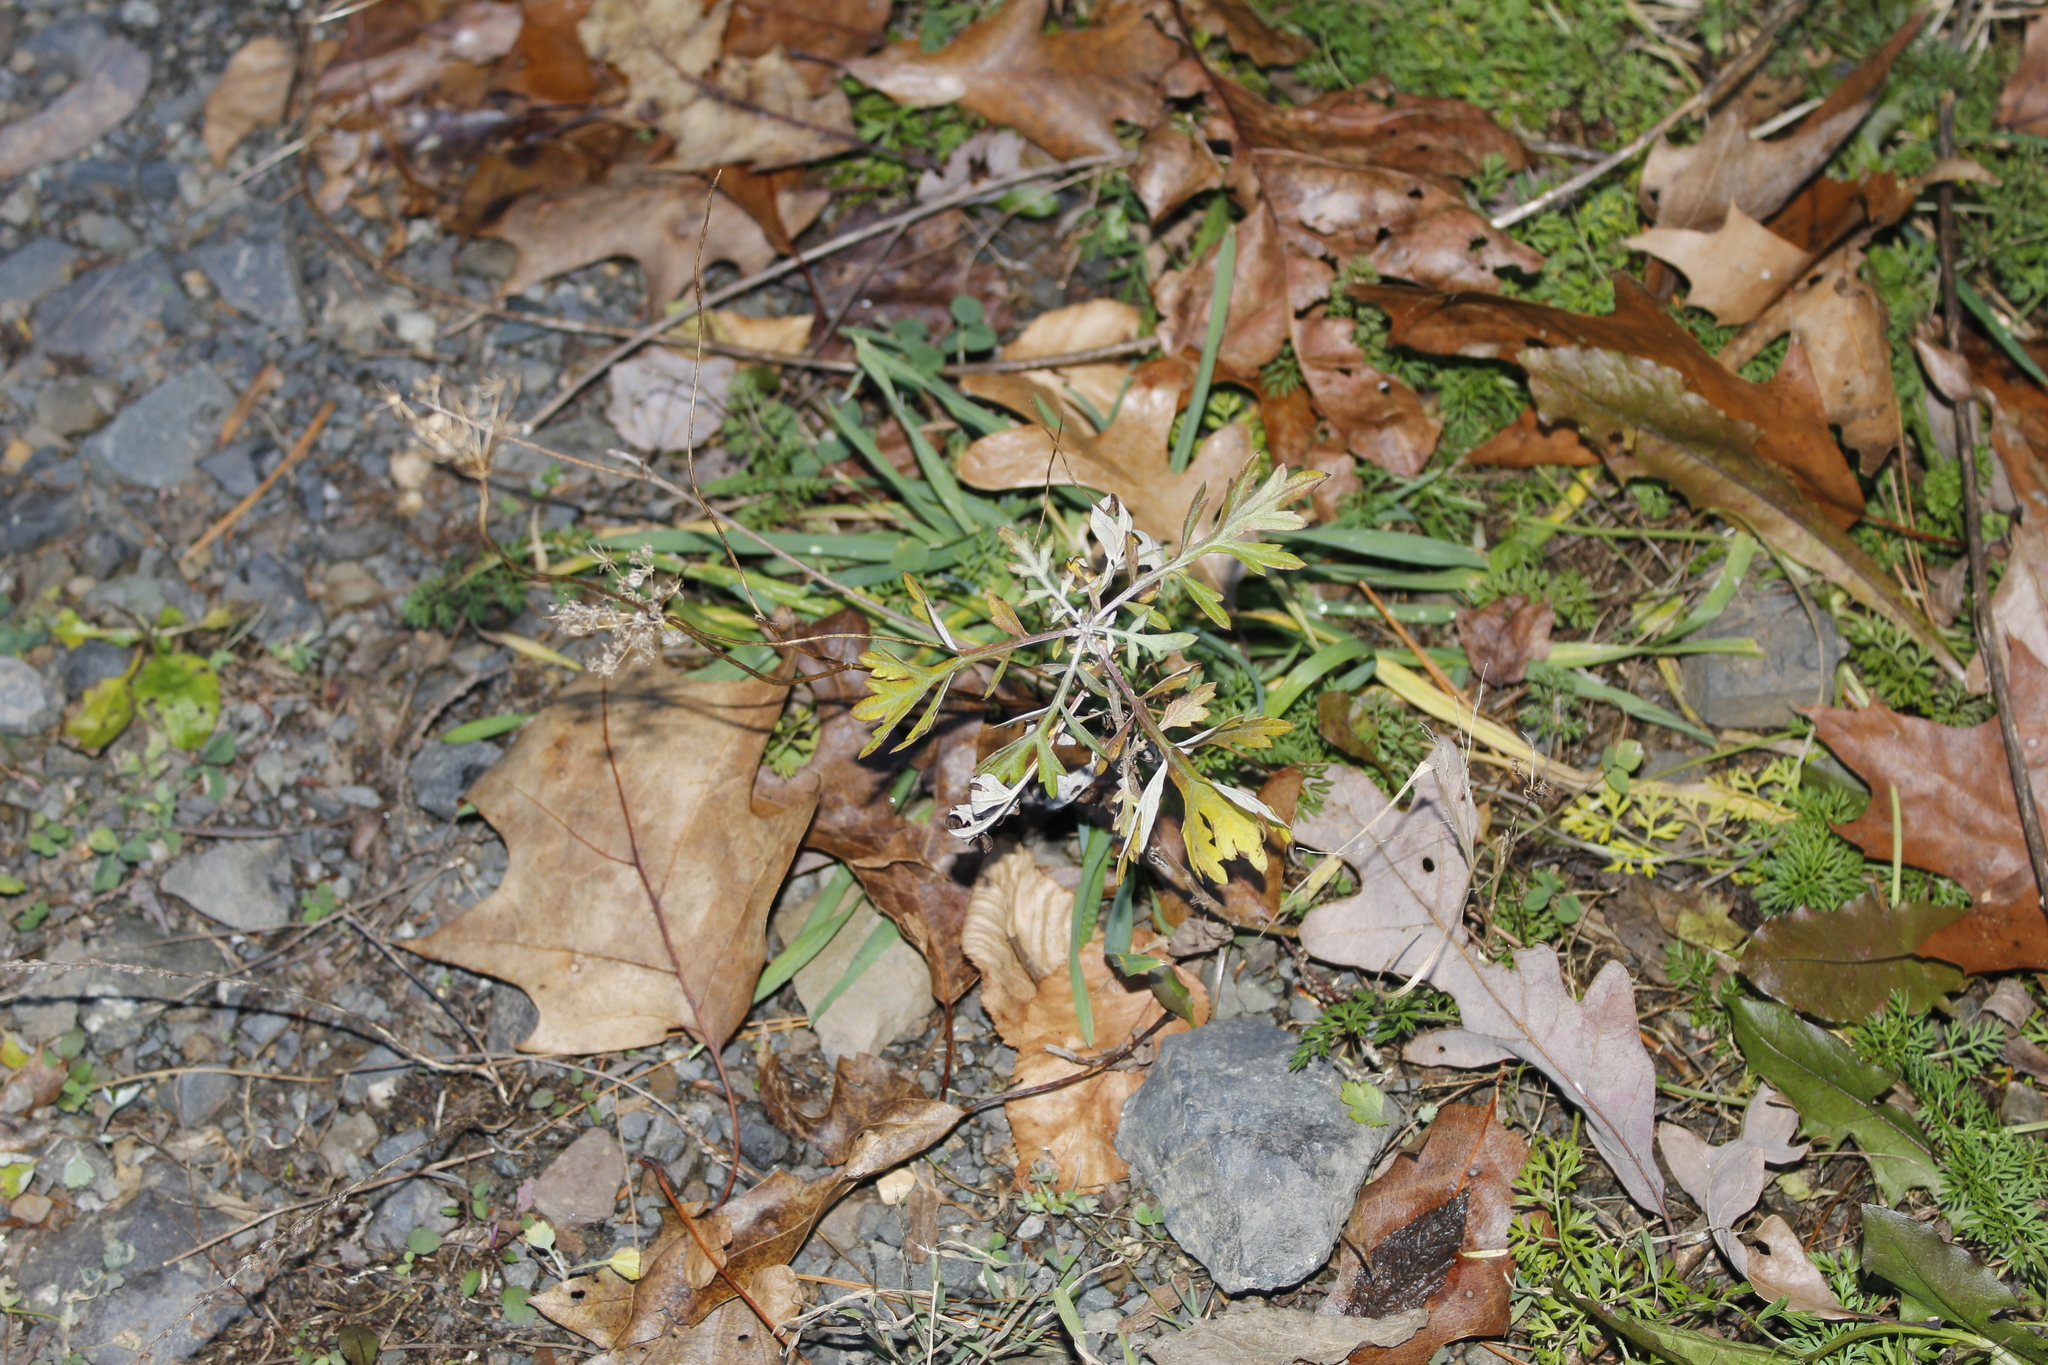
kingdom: Plantae
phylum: Tracheophyta
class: Magnoliopsida
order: Asterales
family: Asteraceae
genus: Artemisia
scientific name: Artemisia vulgaris
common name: Mugwort
